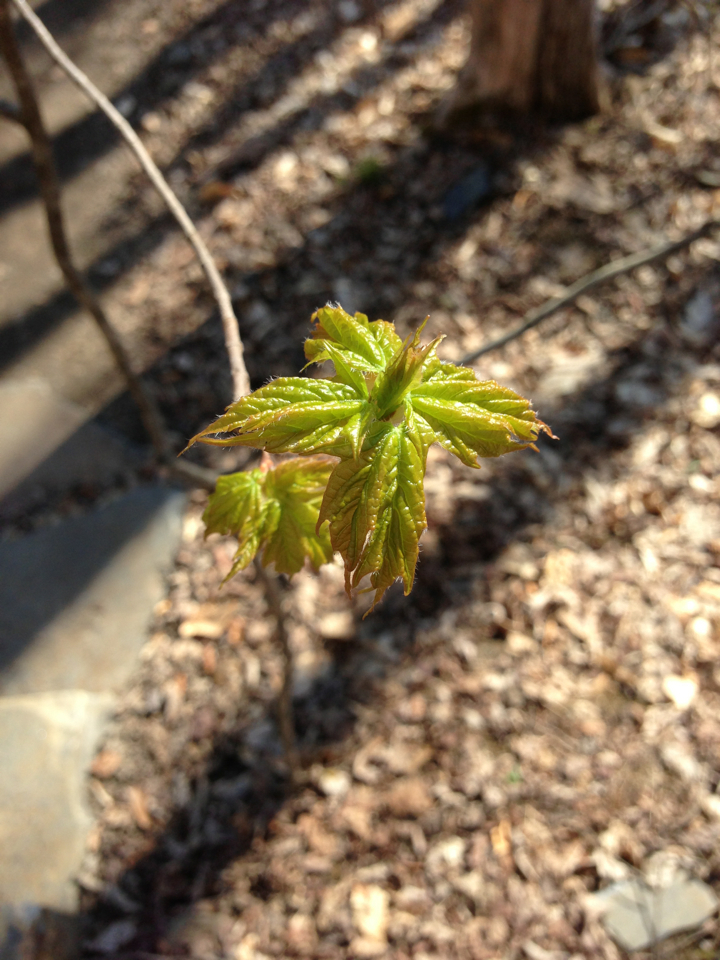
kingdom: Plantae
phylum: Tracheophyta
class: Magnoliopsida
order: Sapindales
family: Sapindaceae
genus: Acer
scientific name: Acer saccharum
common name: Sugar maple
